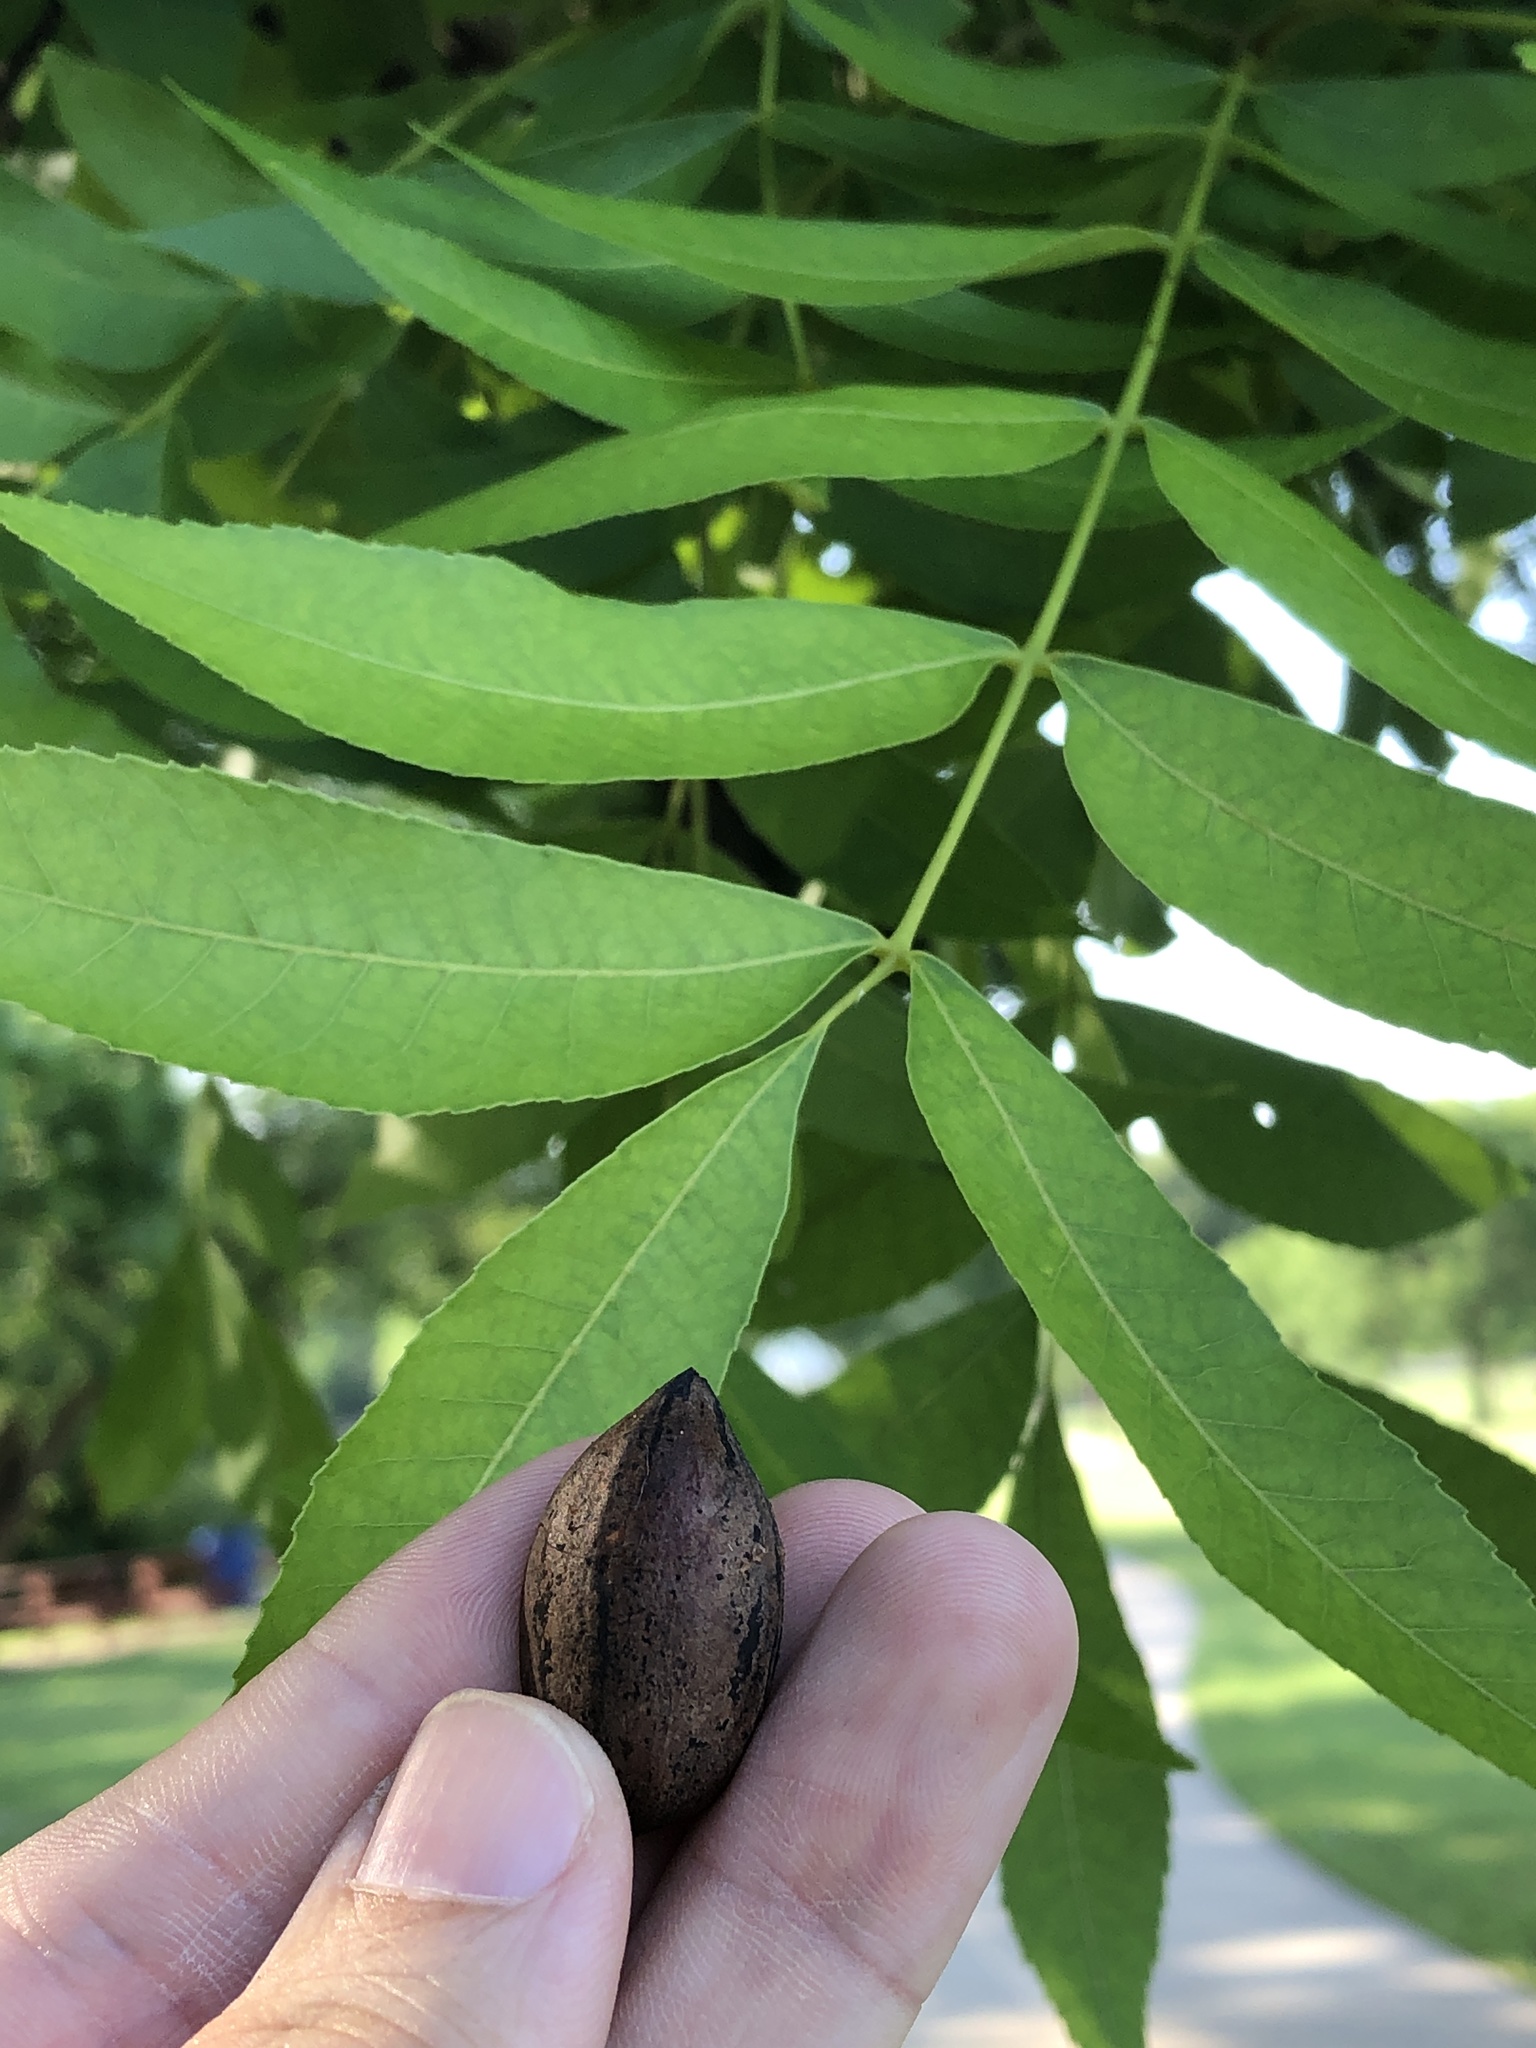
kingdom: Plantae
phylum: Tracheophyta
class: Magnoliopsida
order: Fagales
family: Juglandaceae
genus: Carya
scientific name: Carya illinoinensis
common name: Pecan
